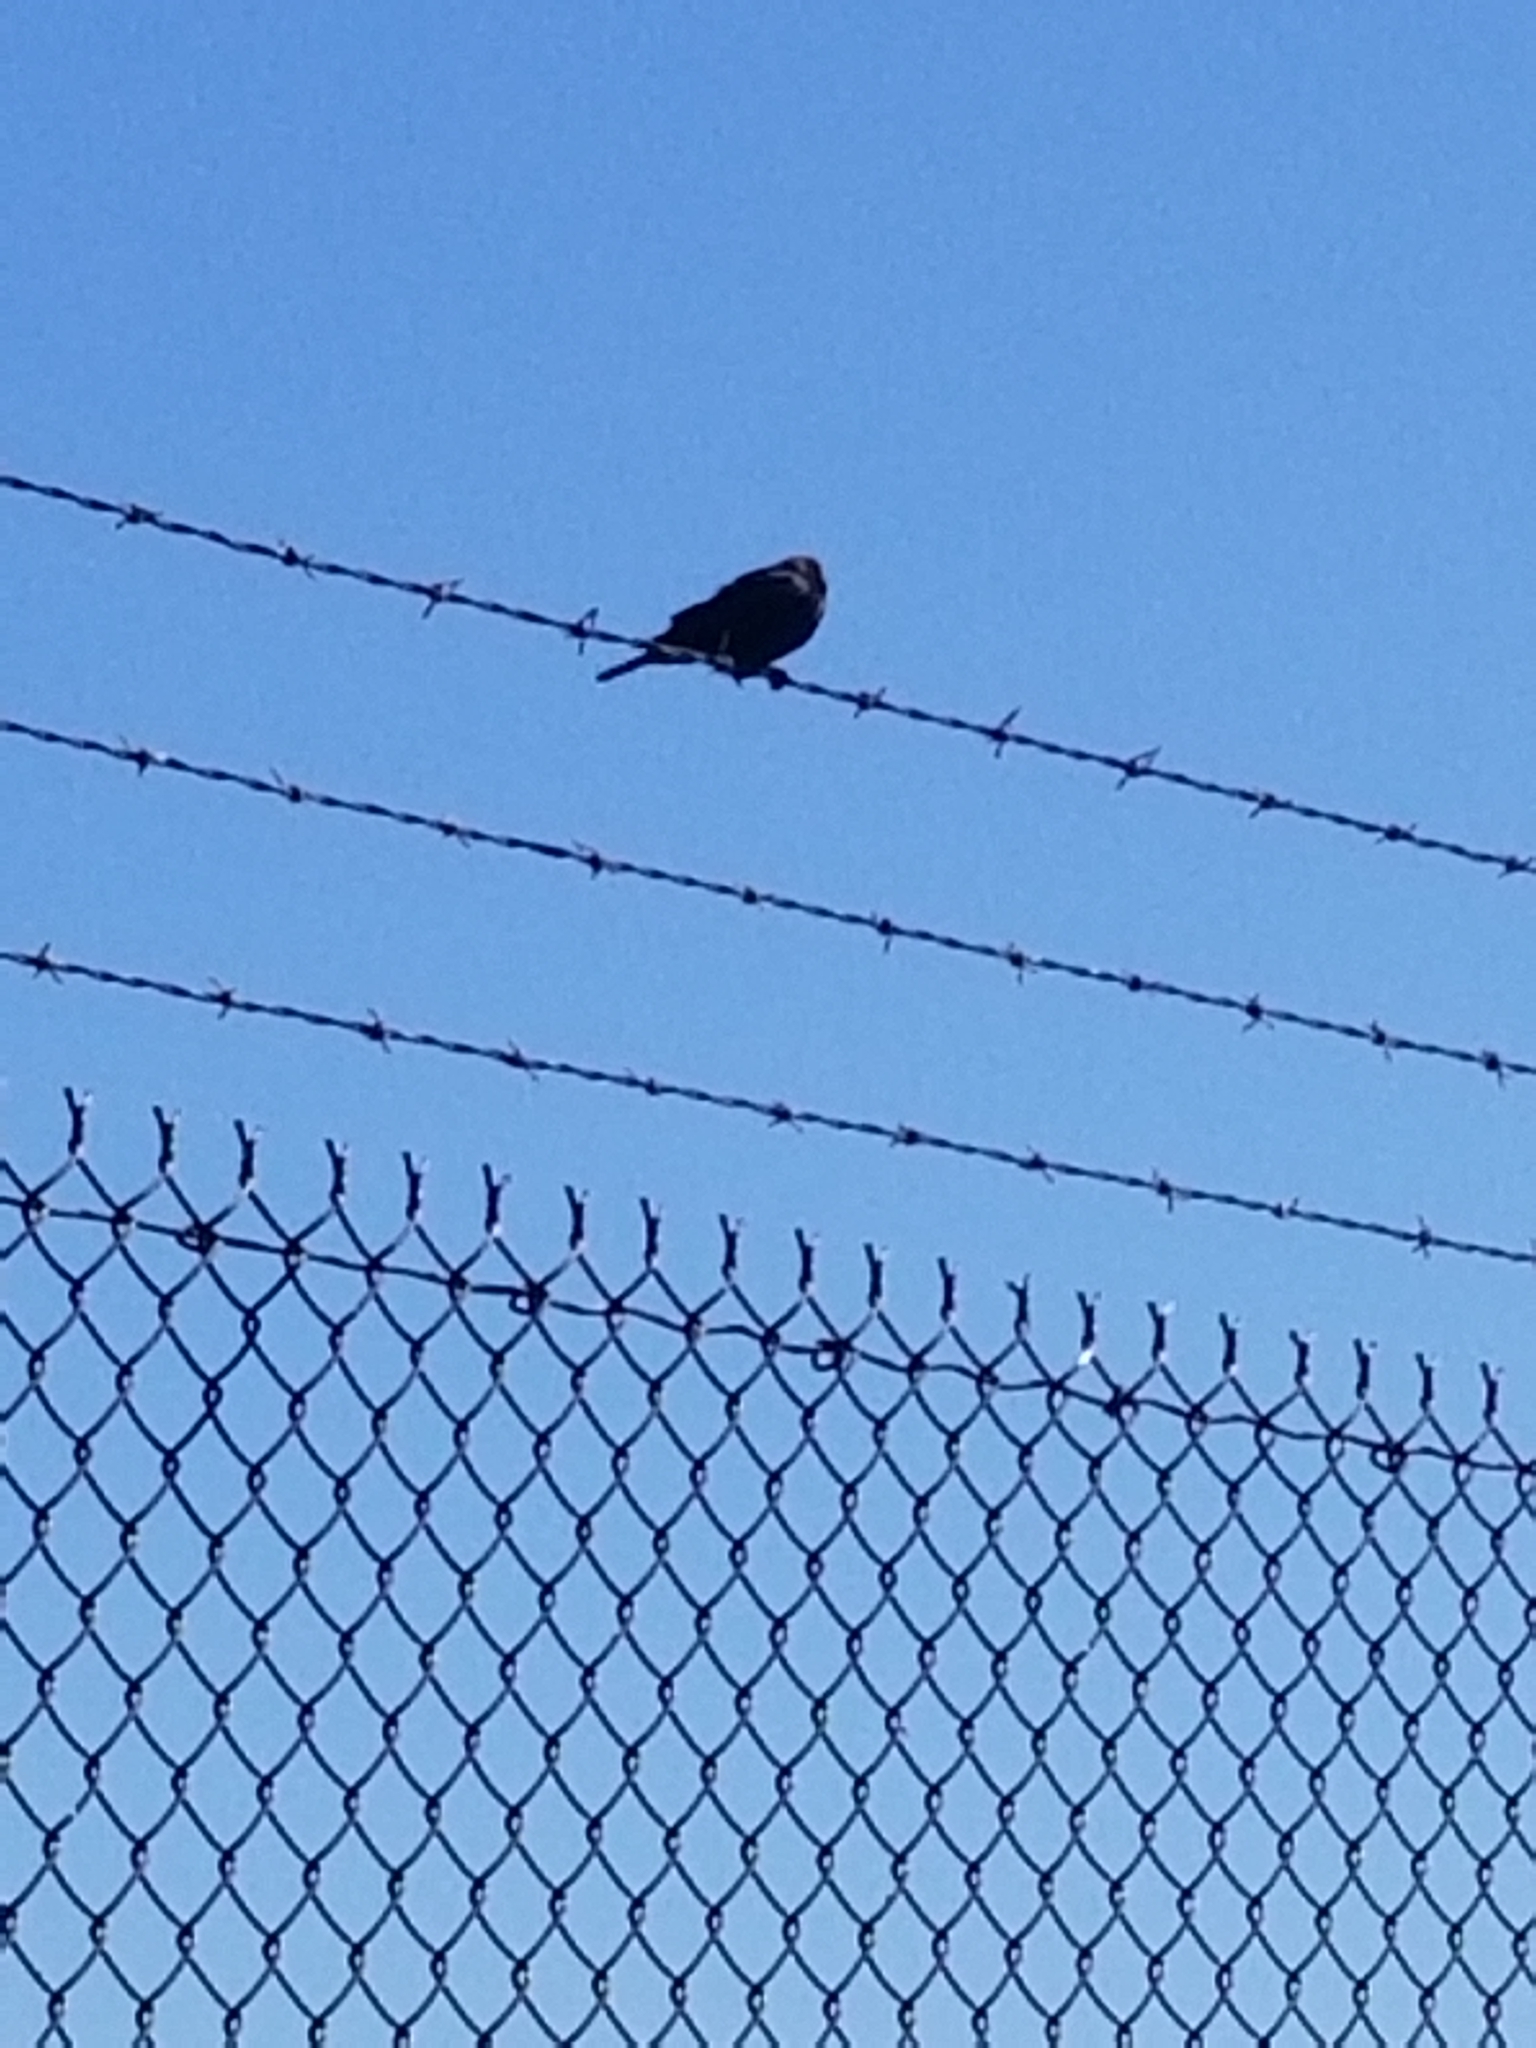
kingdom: Animalia
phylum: Chordata
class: Aves
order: Passeriformes
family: Icteridae
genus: Molothrus
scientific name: Molothrus ater
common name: Brown-headed cowbird
